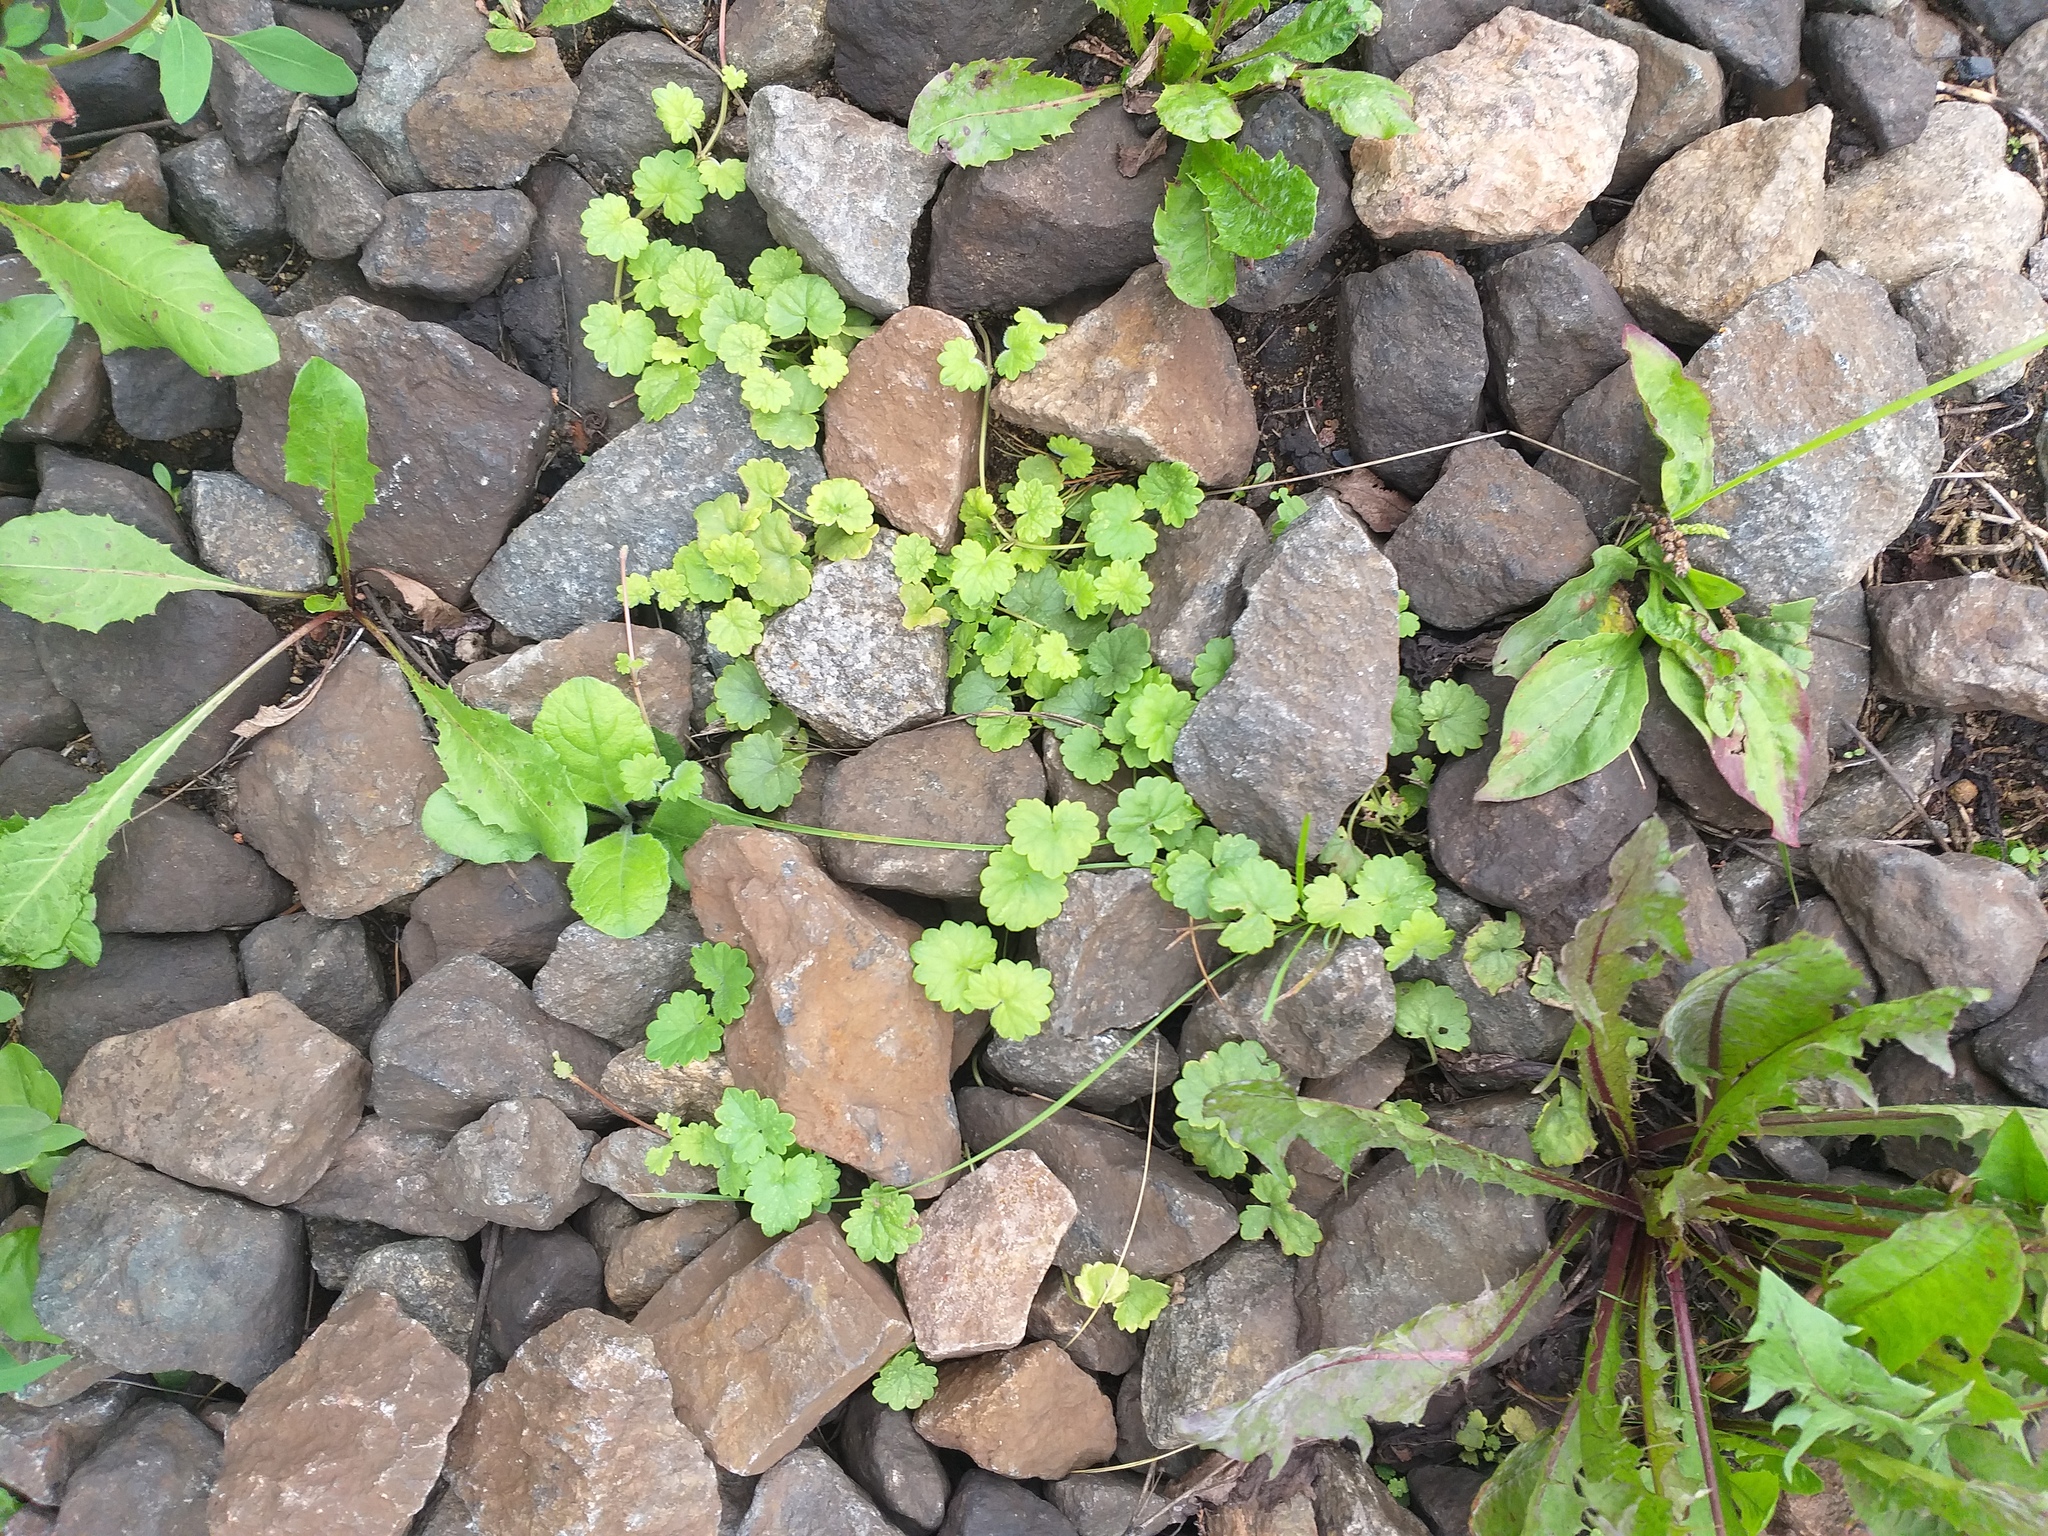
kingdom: Plantae
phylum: Tracheophyta
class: Magnoliopsida
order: Lamiales
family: Lamiaceae
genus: Glechoma
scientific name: Glechoma hederacea
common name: Ground ivy
